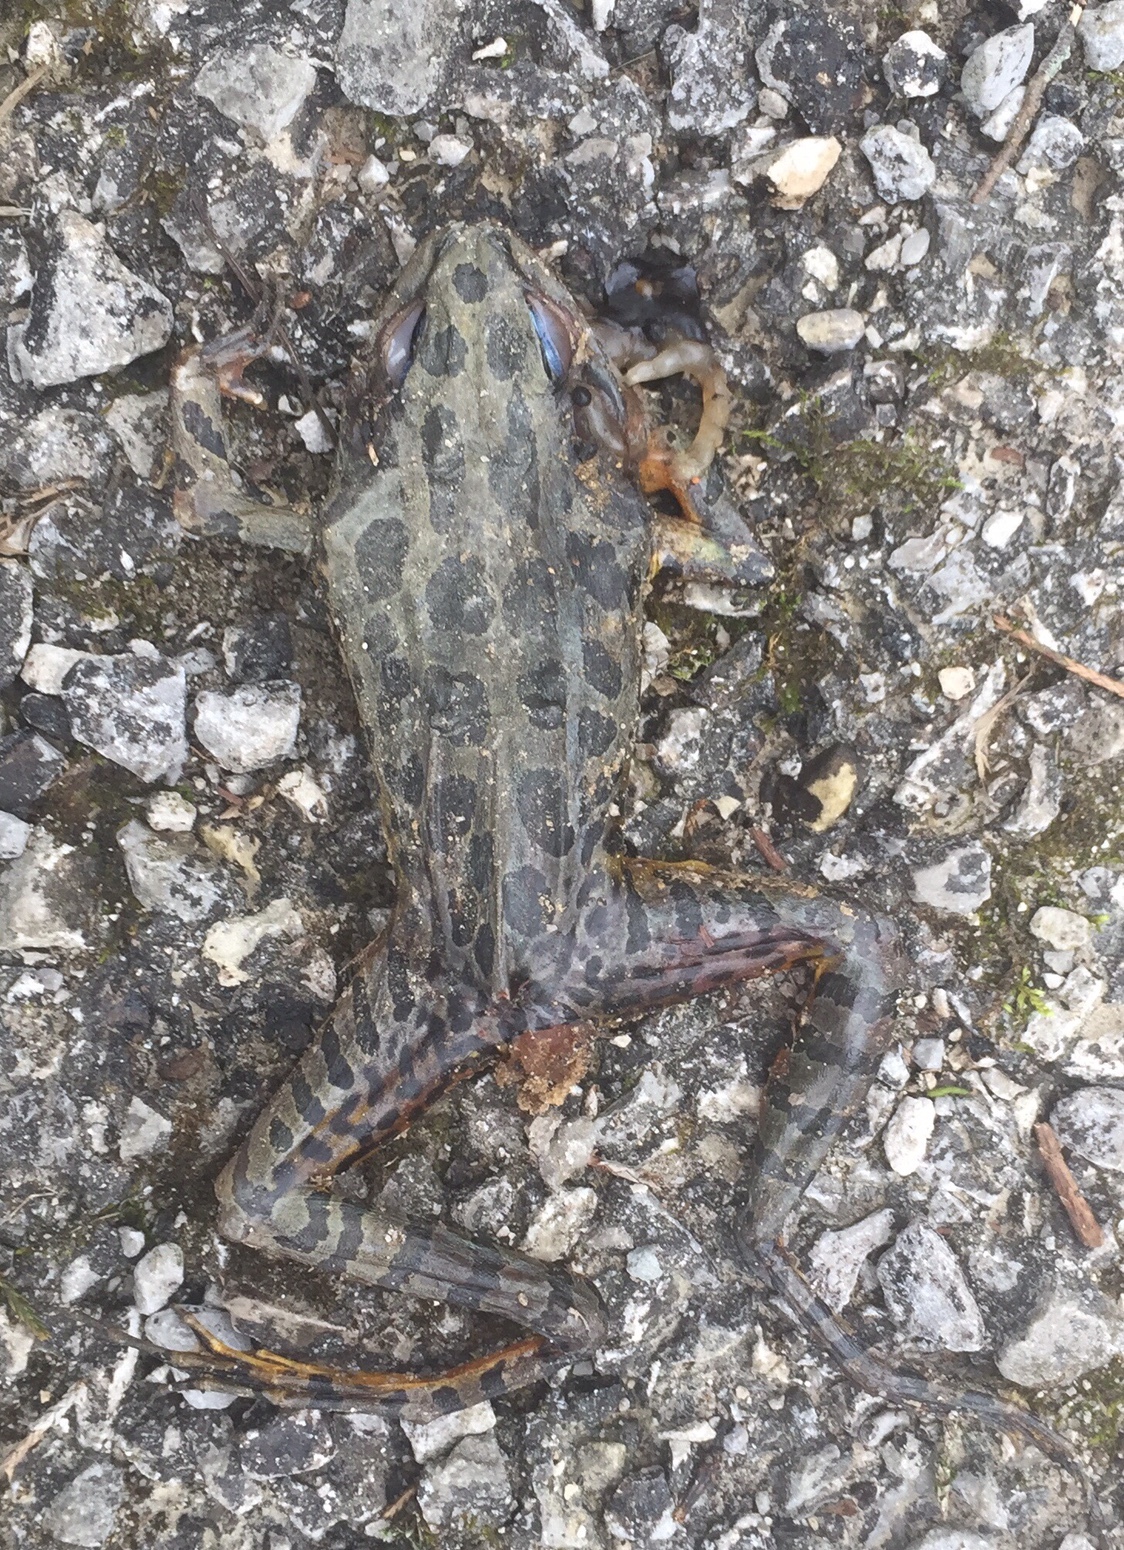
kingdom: Animalia
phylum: Chordata
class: Amphibia
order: Anura
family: Ranidae
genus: Lithobates
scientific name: Lithobates palustris
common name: Pickerel frog
